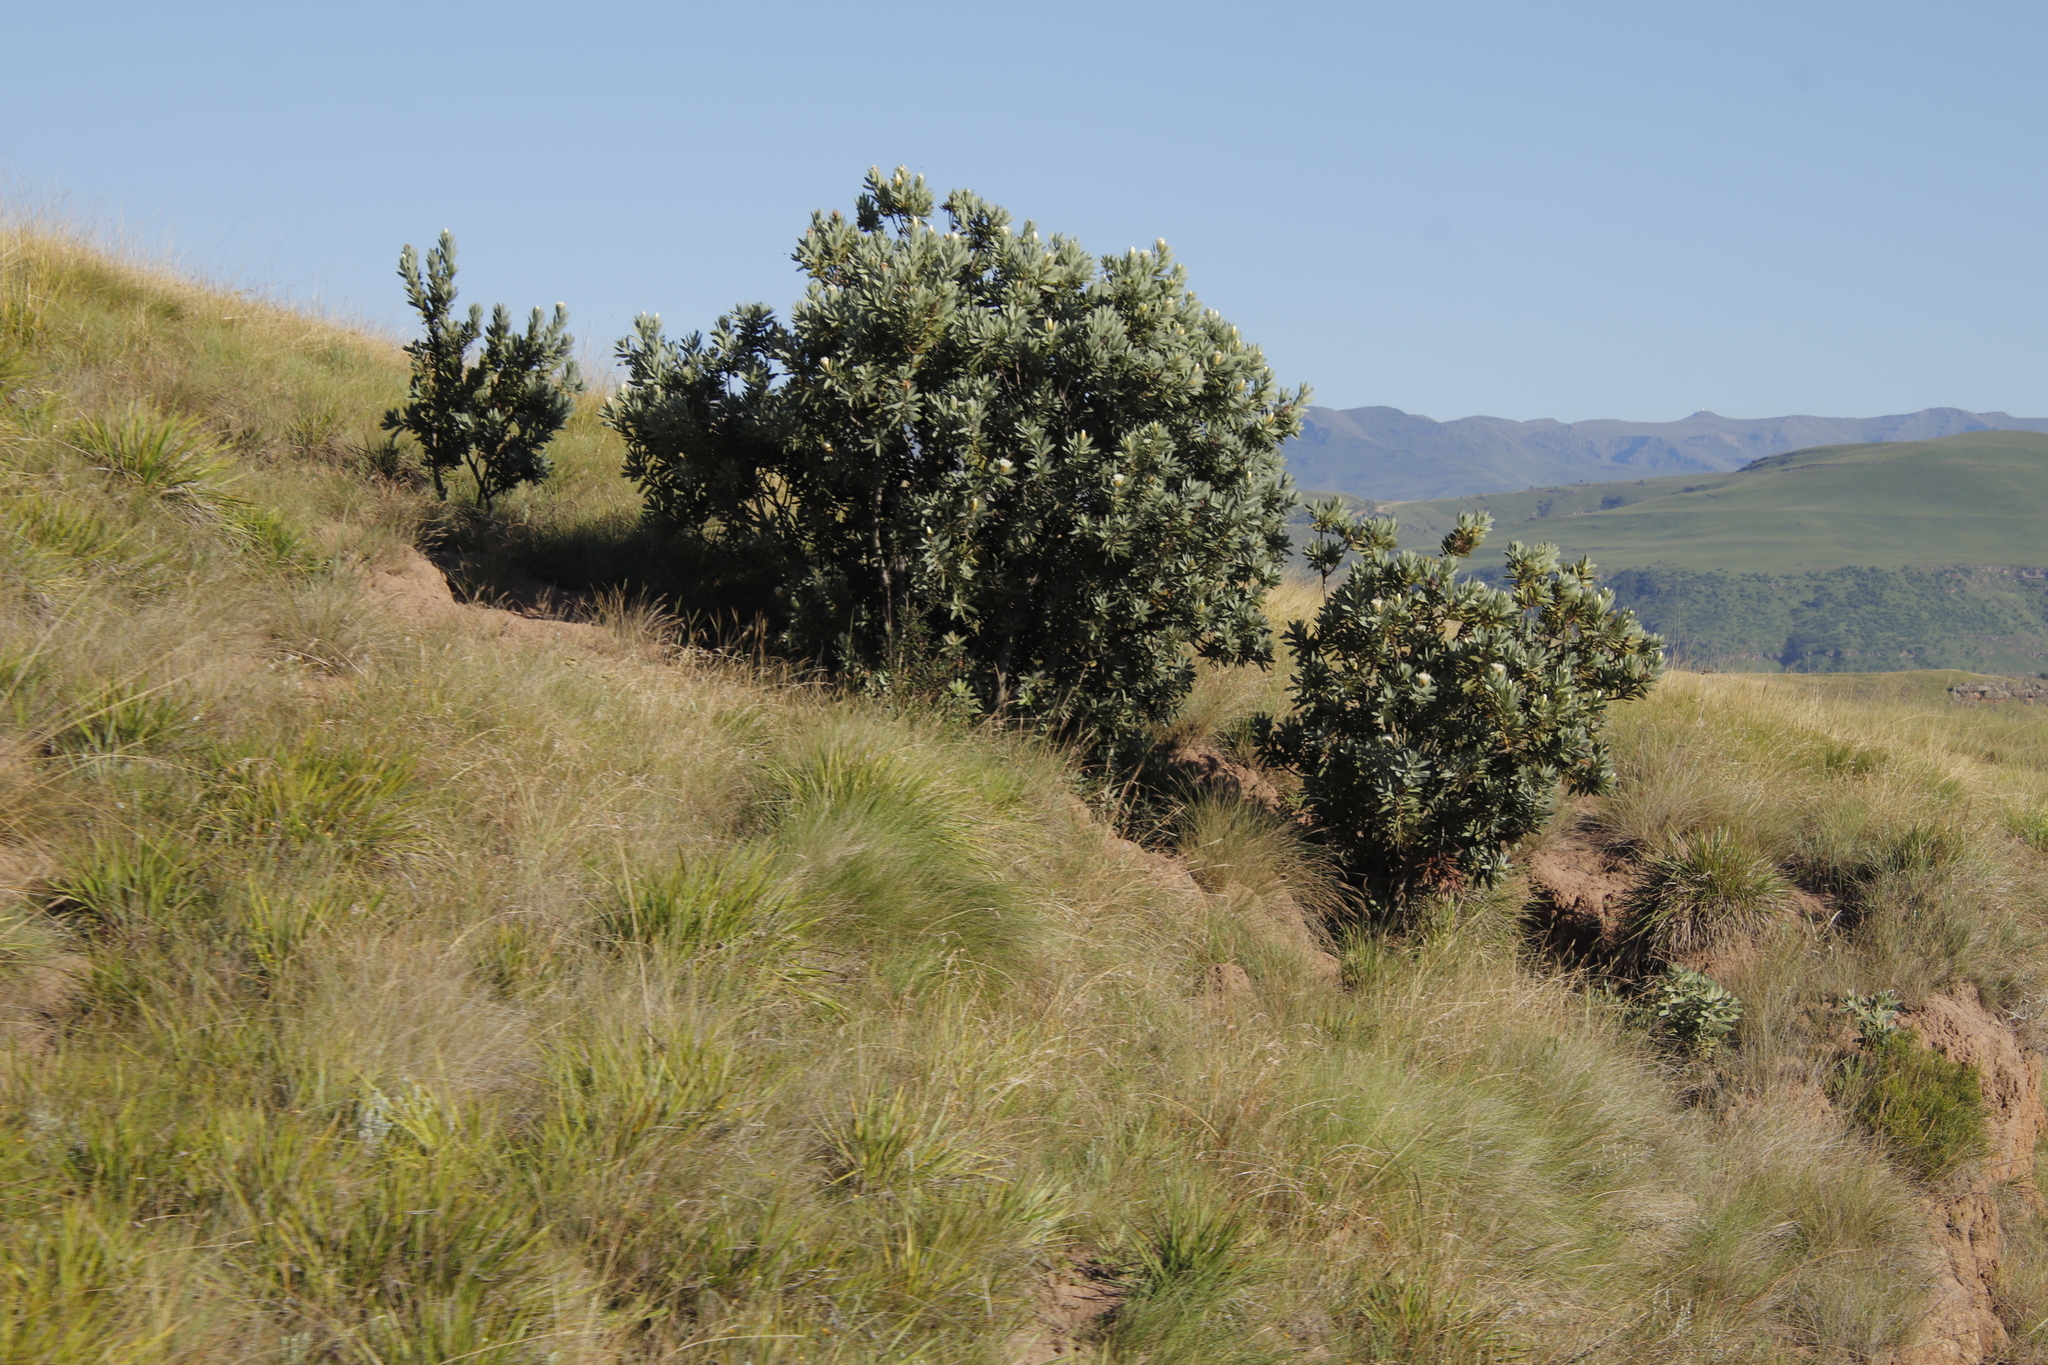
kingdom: Plantae
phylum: Tracheophyta
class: Magnoliopsida
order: Proteales
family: Proteaceae
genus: Protea
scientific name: Protea subvestita
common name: Lip-flower sugarbush
